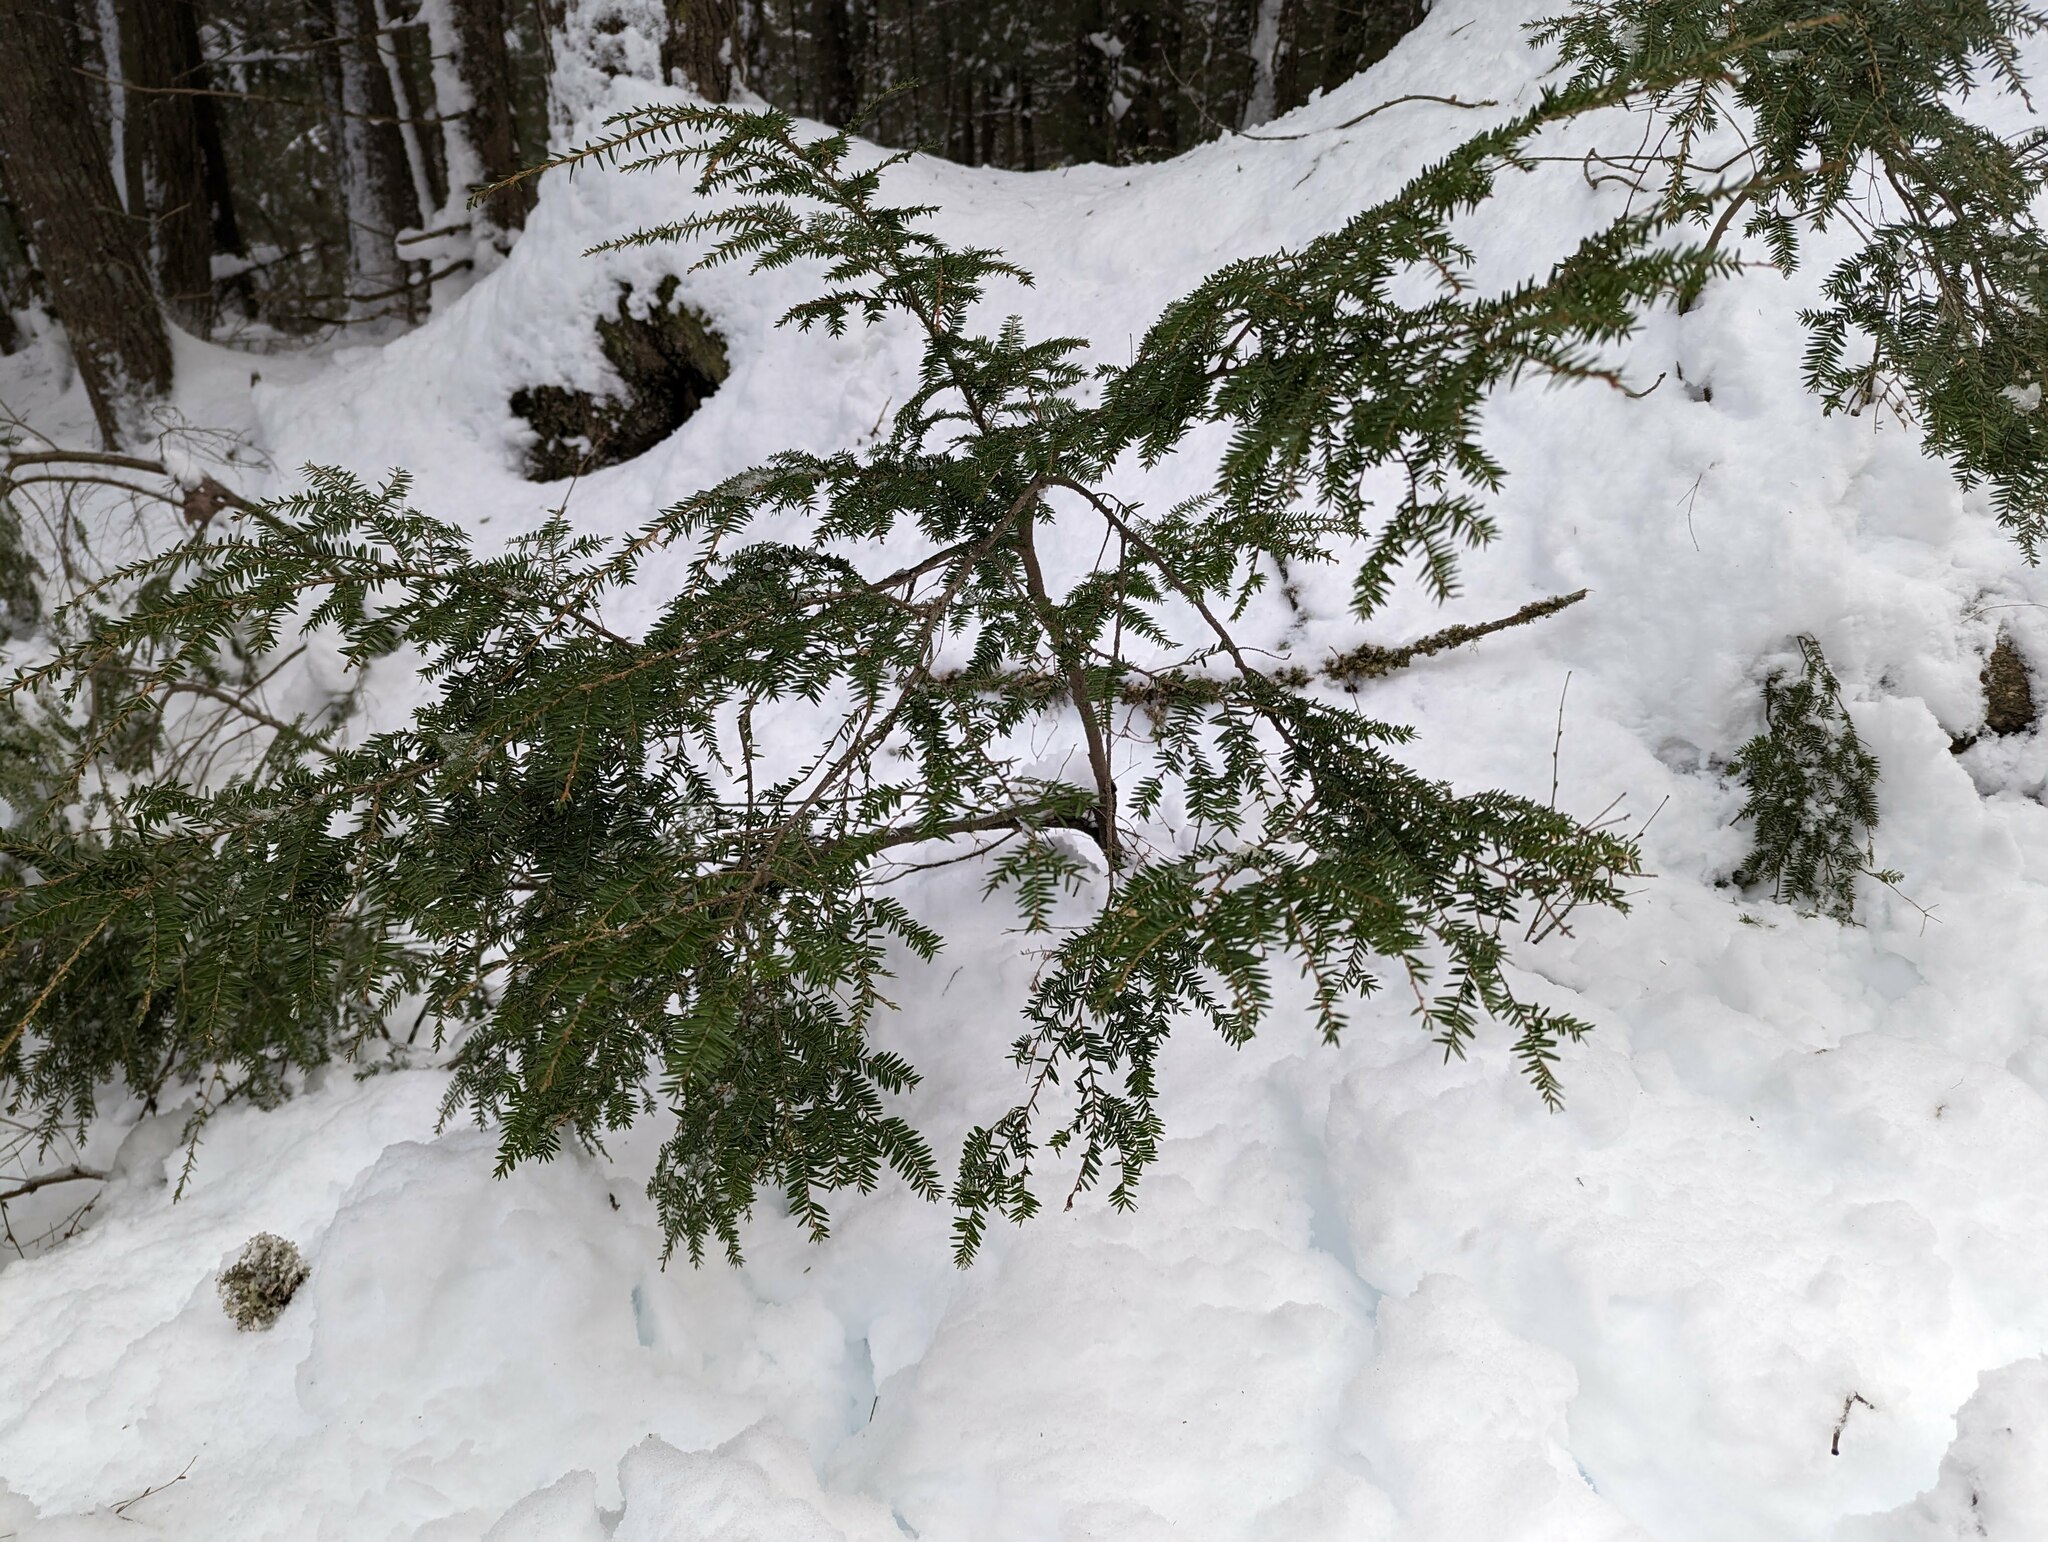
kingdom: Plantae
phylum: Tracheophyta
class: Pinopsida
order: Pinales
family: Pinaceae
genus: Tsuga
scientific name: Tsuga canadensis
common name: Eastern hemlock
